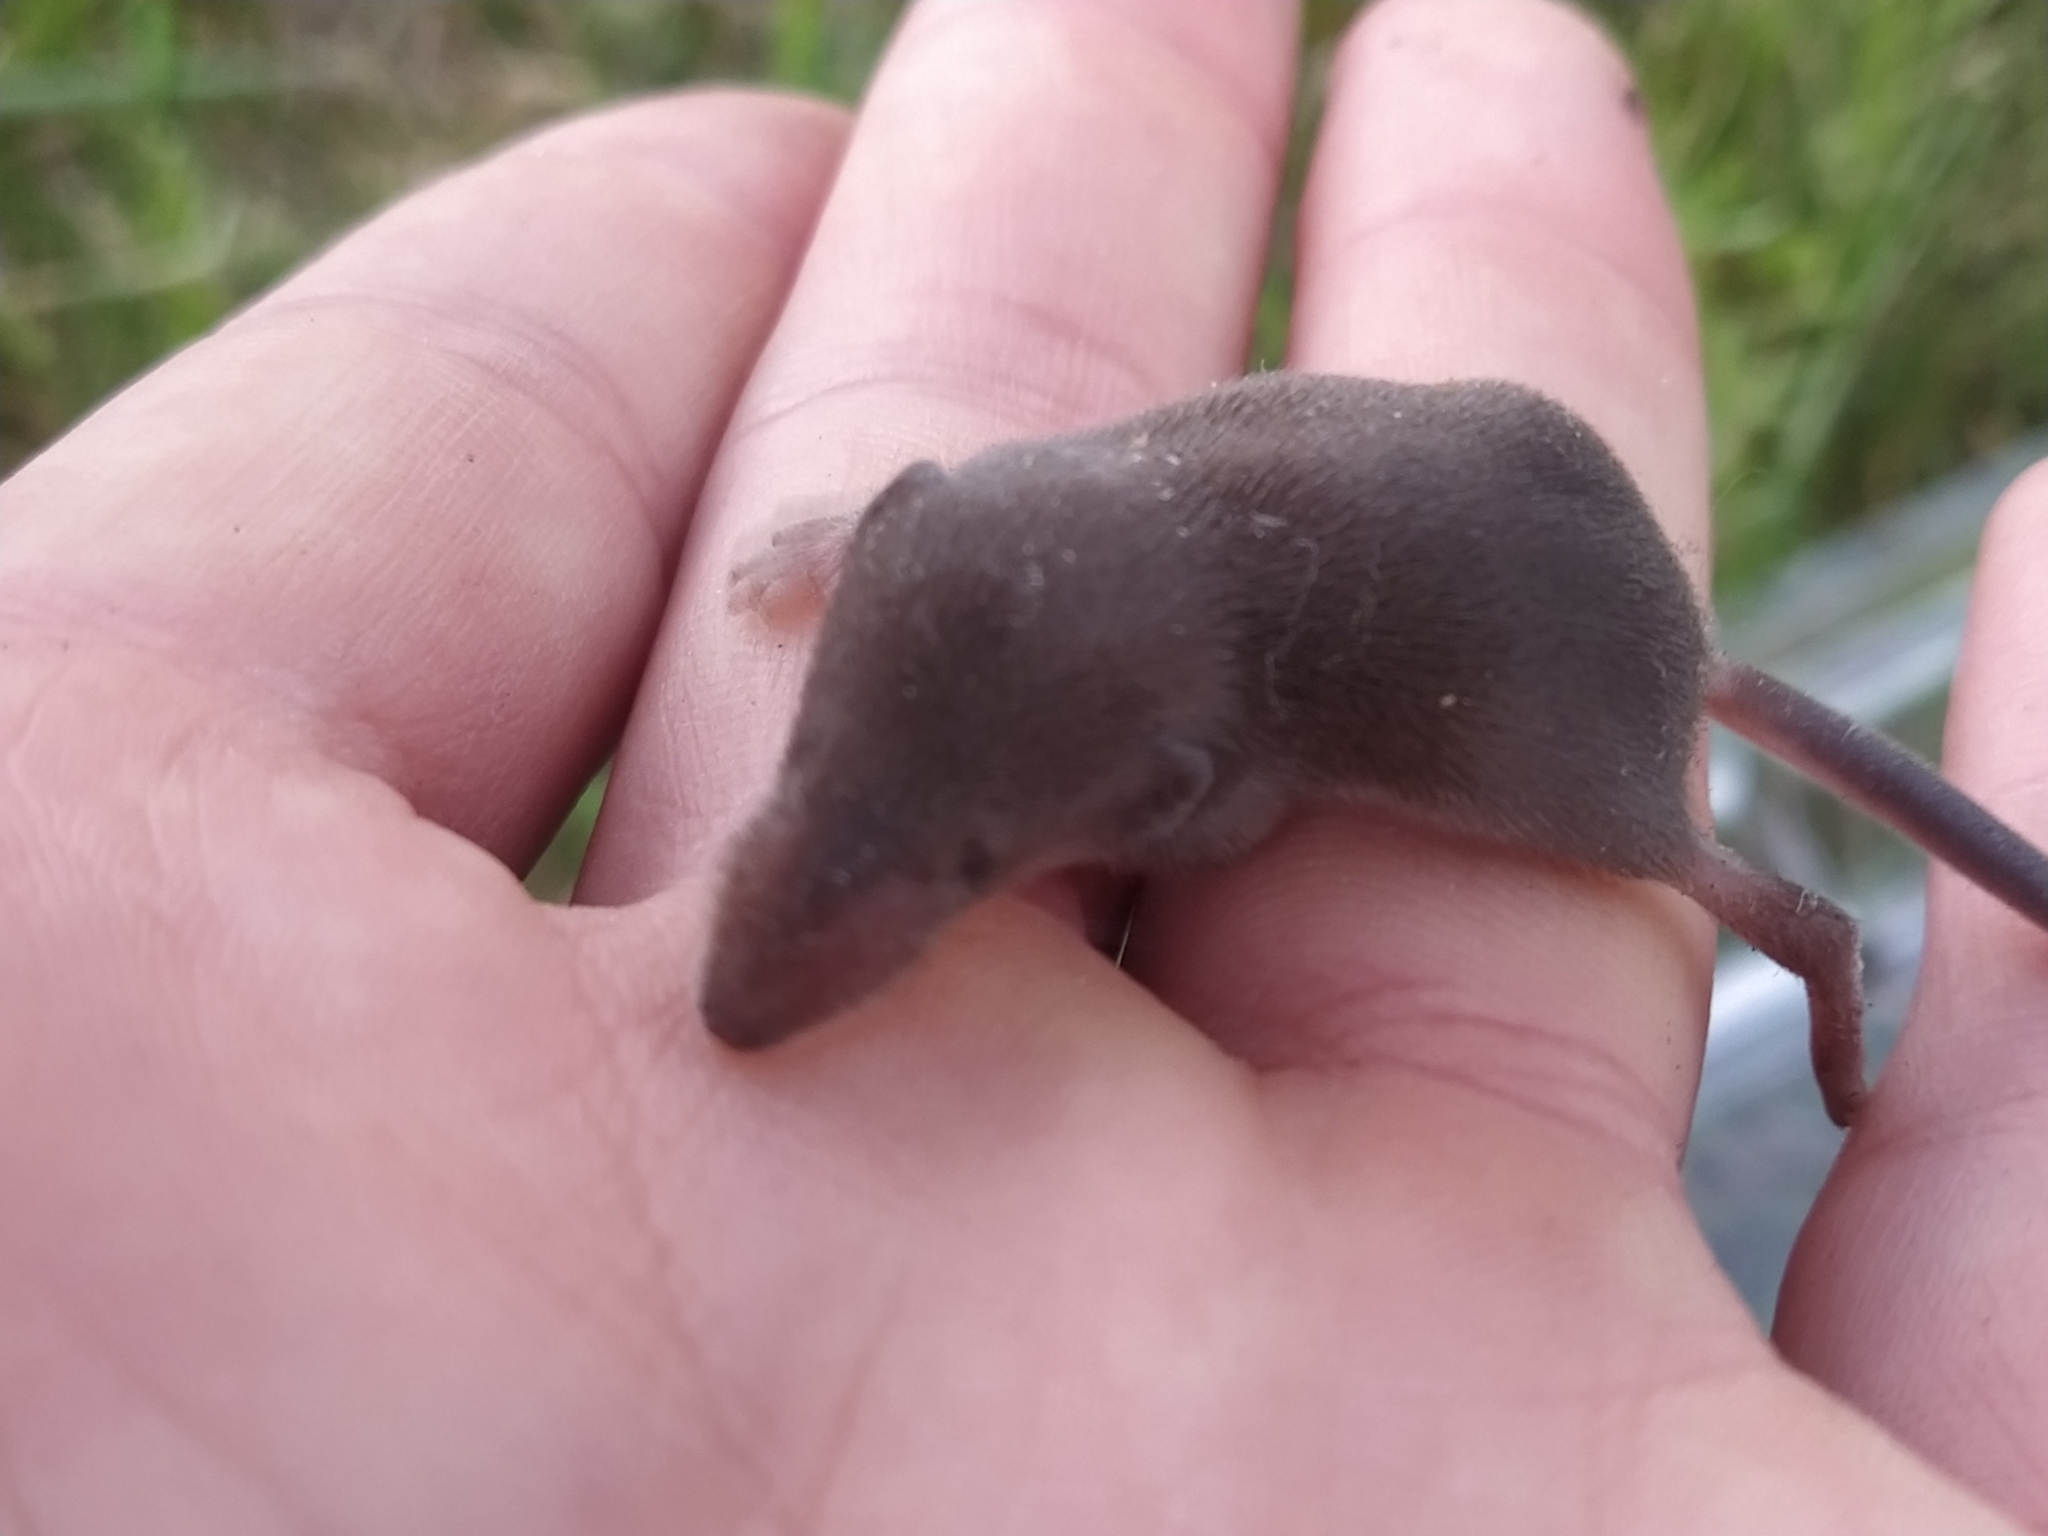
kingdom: Animalia
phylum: Chordata
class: Mammalia
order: Soricomorpha
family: Soricidae
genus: Sorex
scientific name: Sorex fumeus
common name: Smoky shrew
